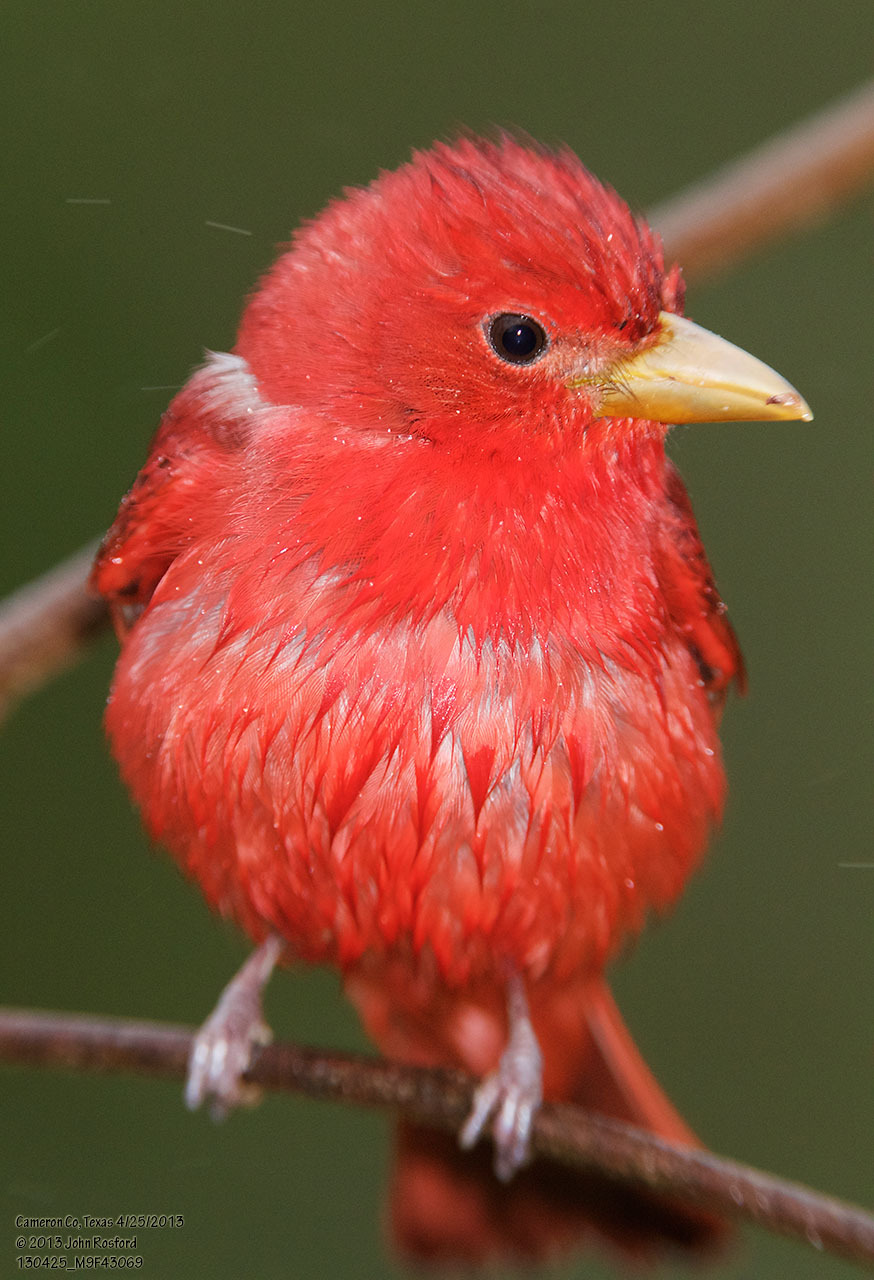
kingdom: Animalia
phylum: Chordata
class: Aves
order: Passeriformes
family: Cardinalidae
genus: Piranga
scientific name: Piranga rubra
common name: Summer tanager
